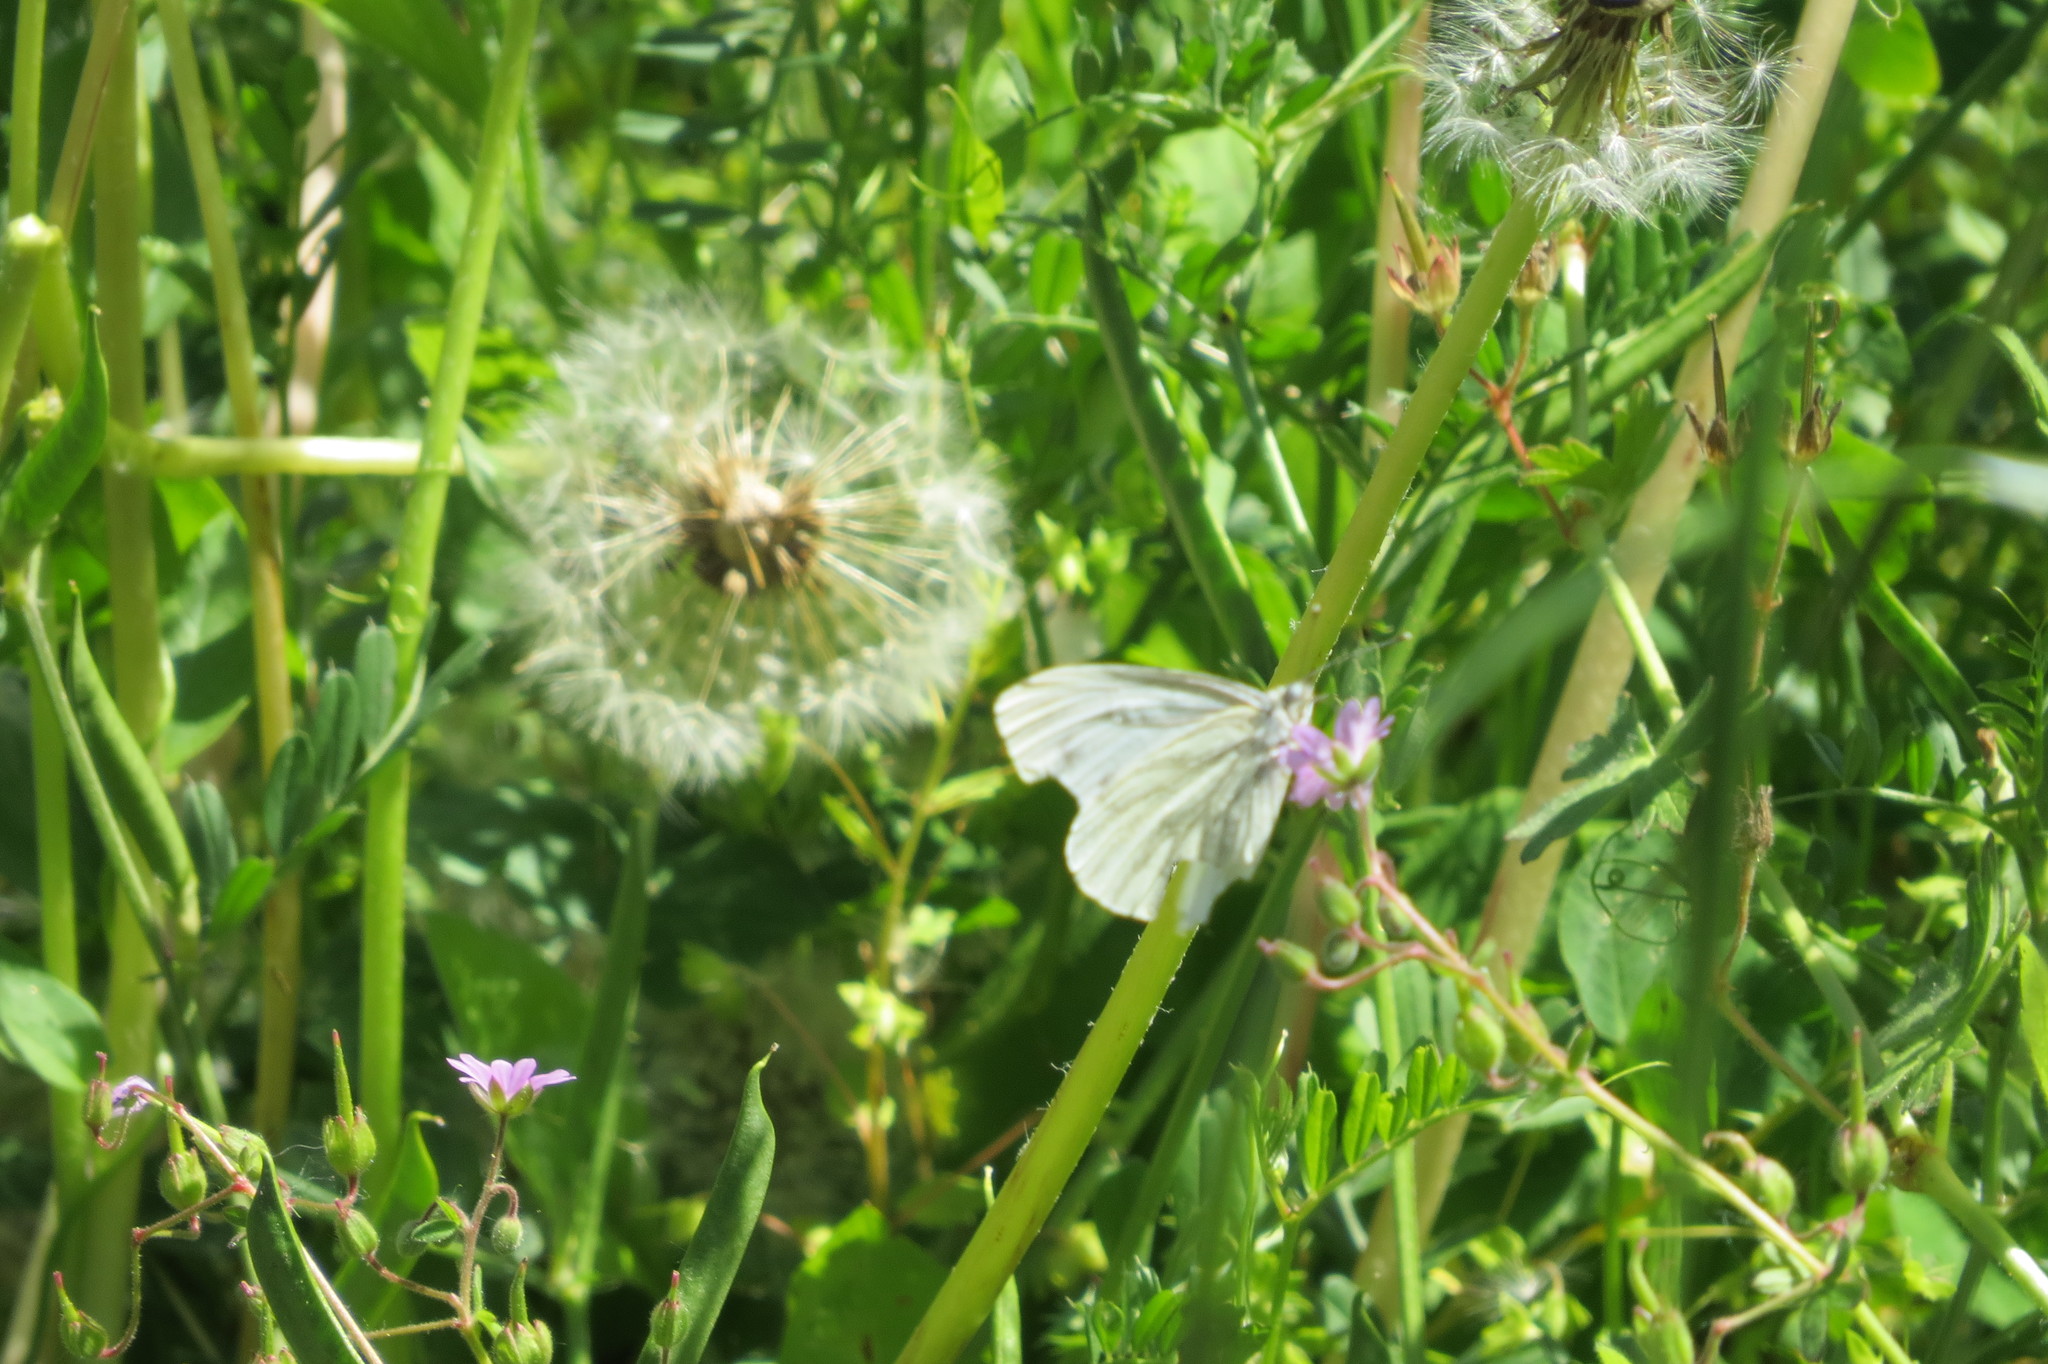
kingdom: Animalia
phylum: Arthropoda
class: Insecta
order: Lepidoptera
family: Pieridae
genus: Pieris
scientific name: Pieris napi
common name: Green-veined white
